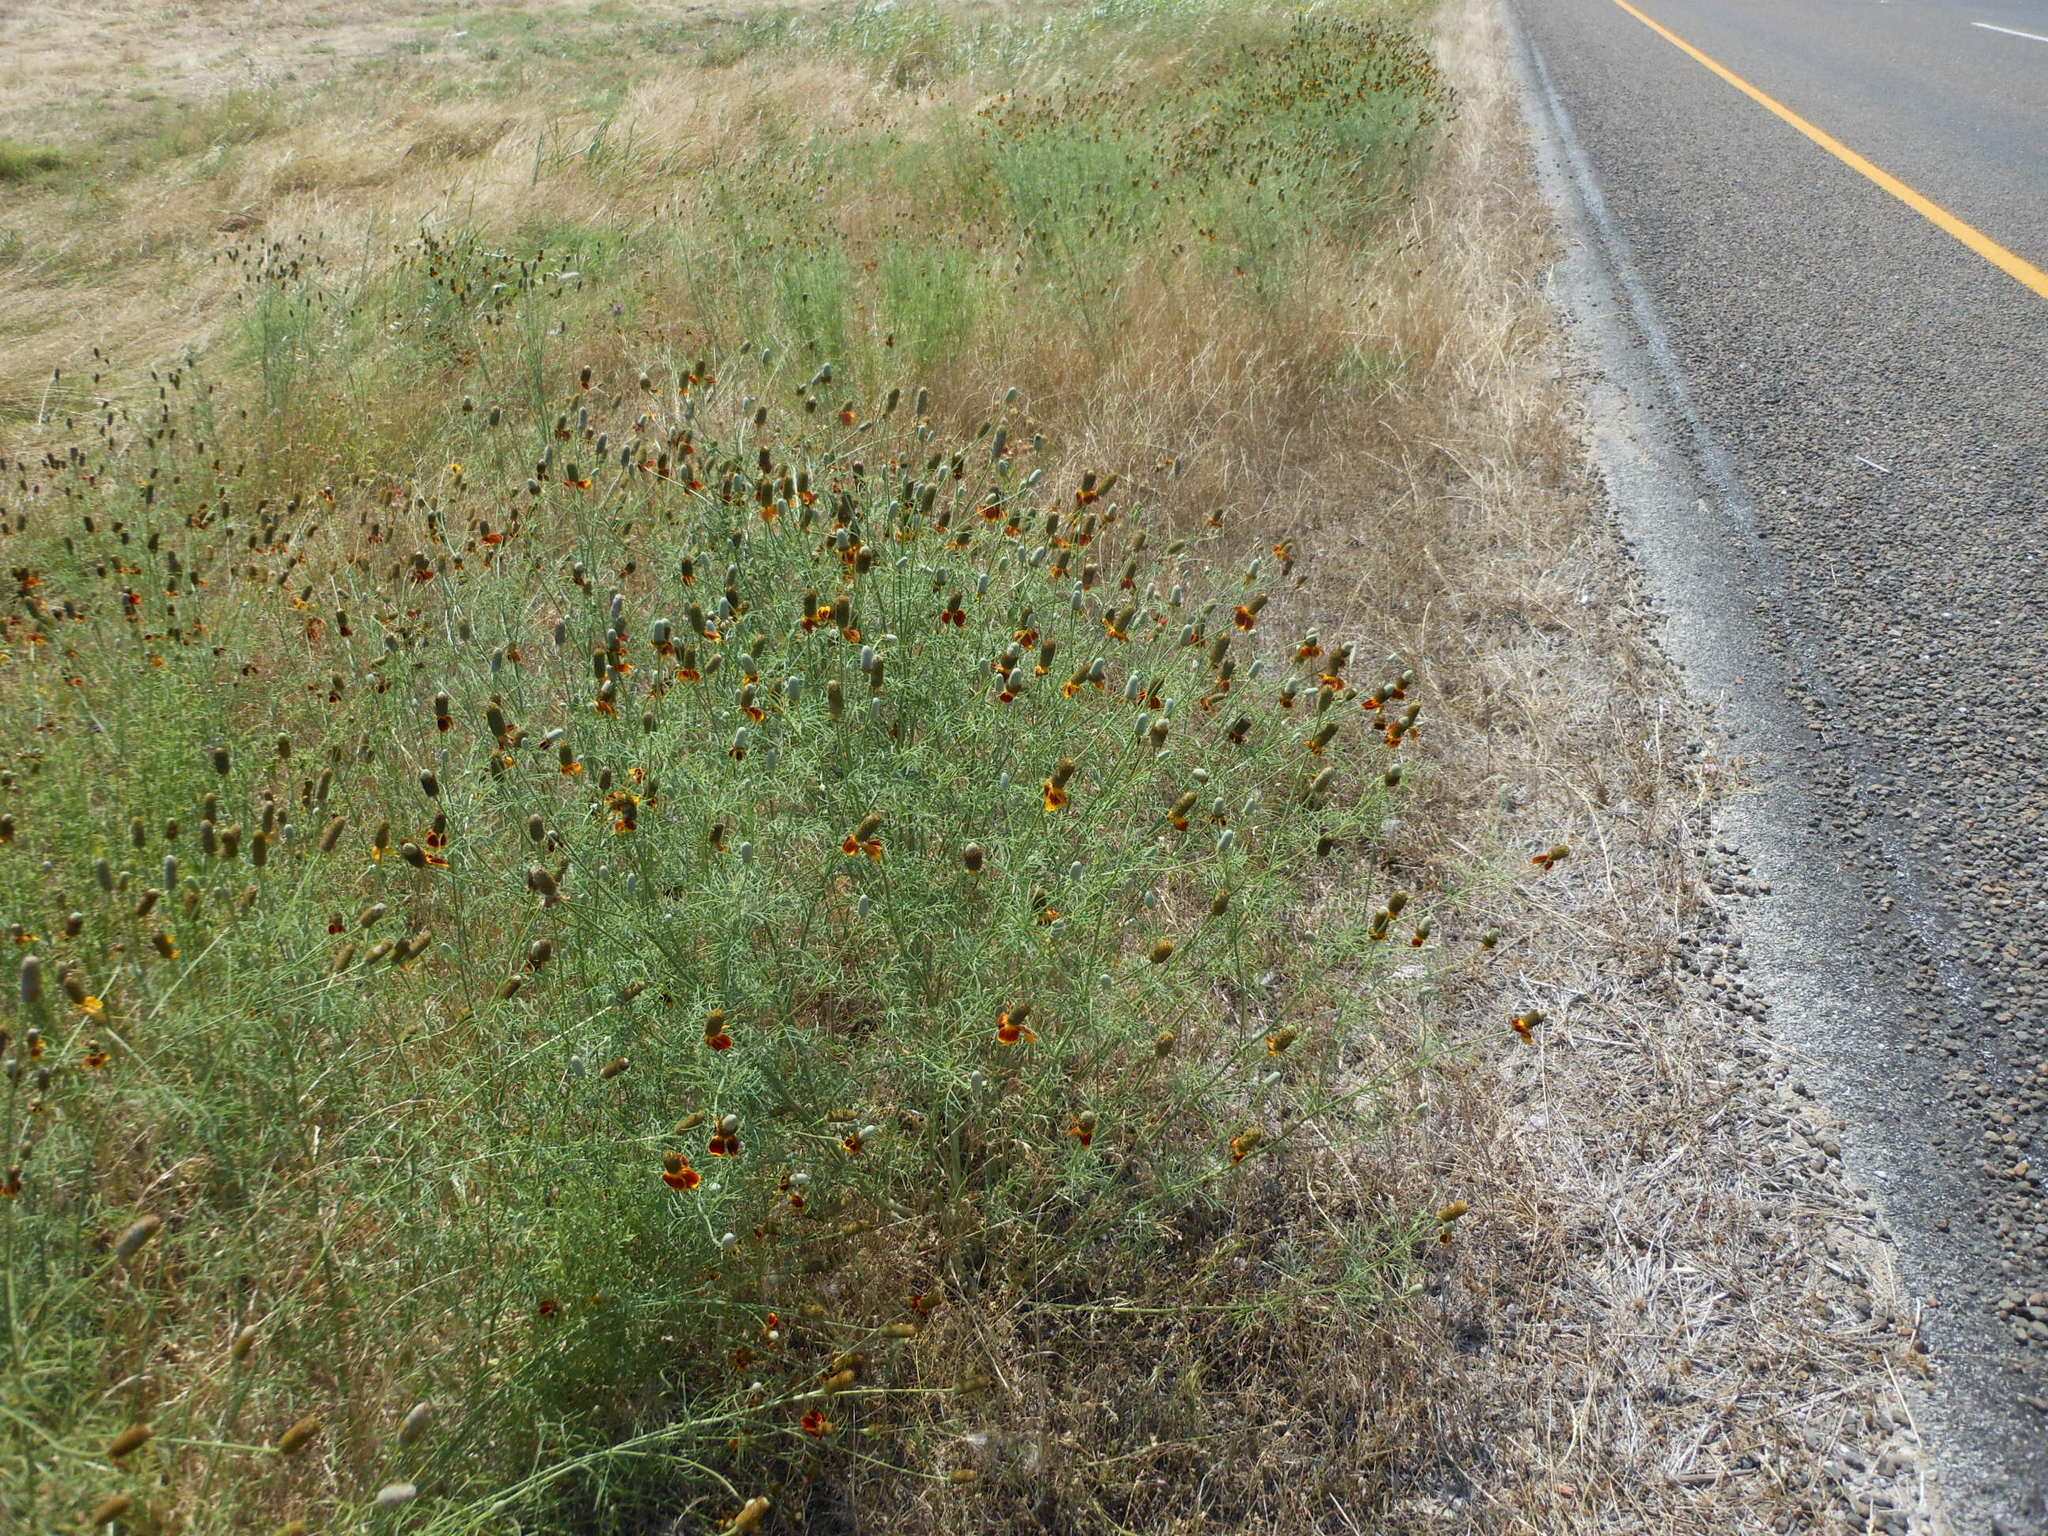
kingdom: Plantae
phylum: Tracheophyta
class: Magnoliopsida
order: Asterales
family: Asteraceae
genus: Ratibida
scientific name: Ratibida columnifera
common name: Prairie coneflower
